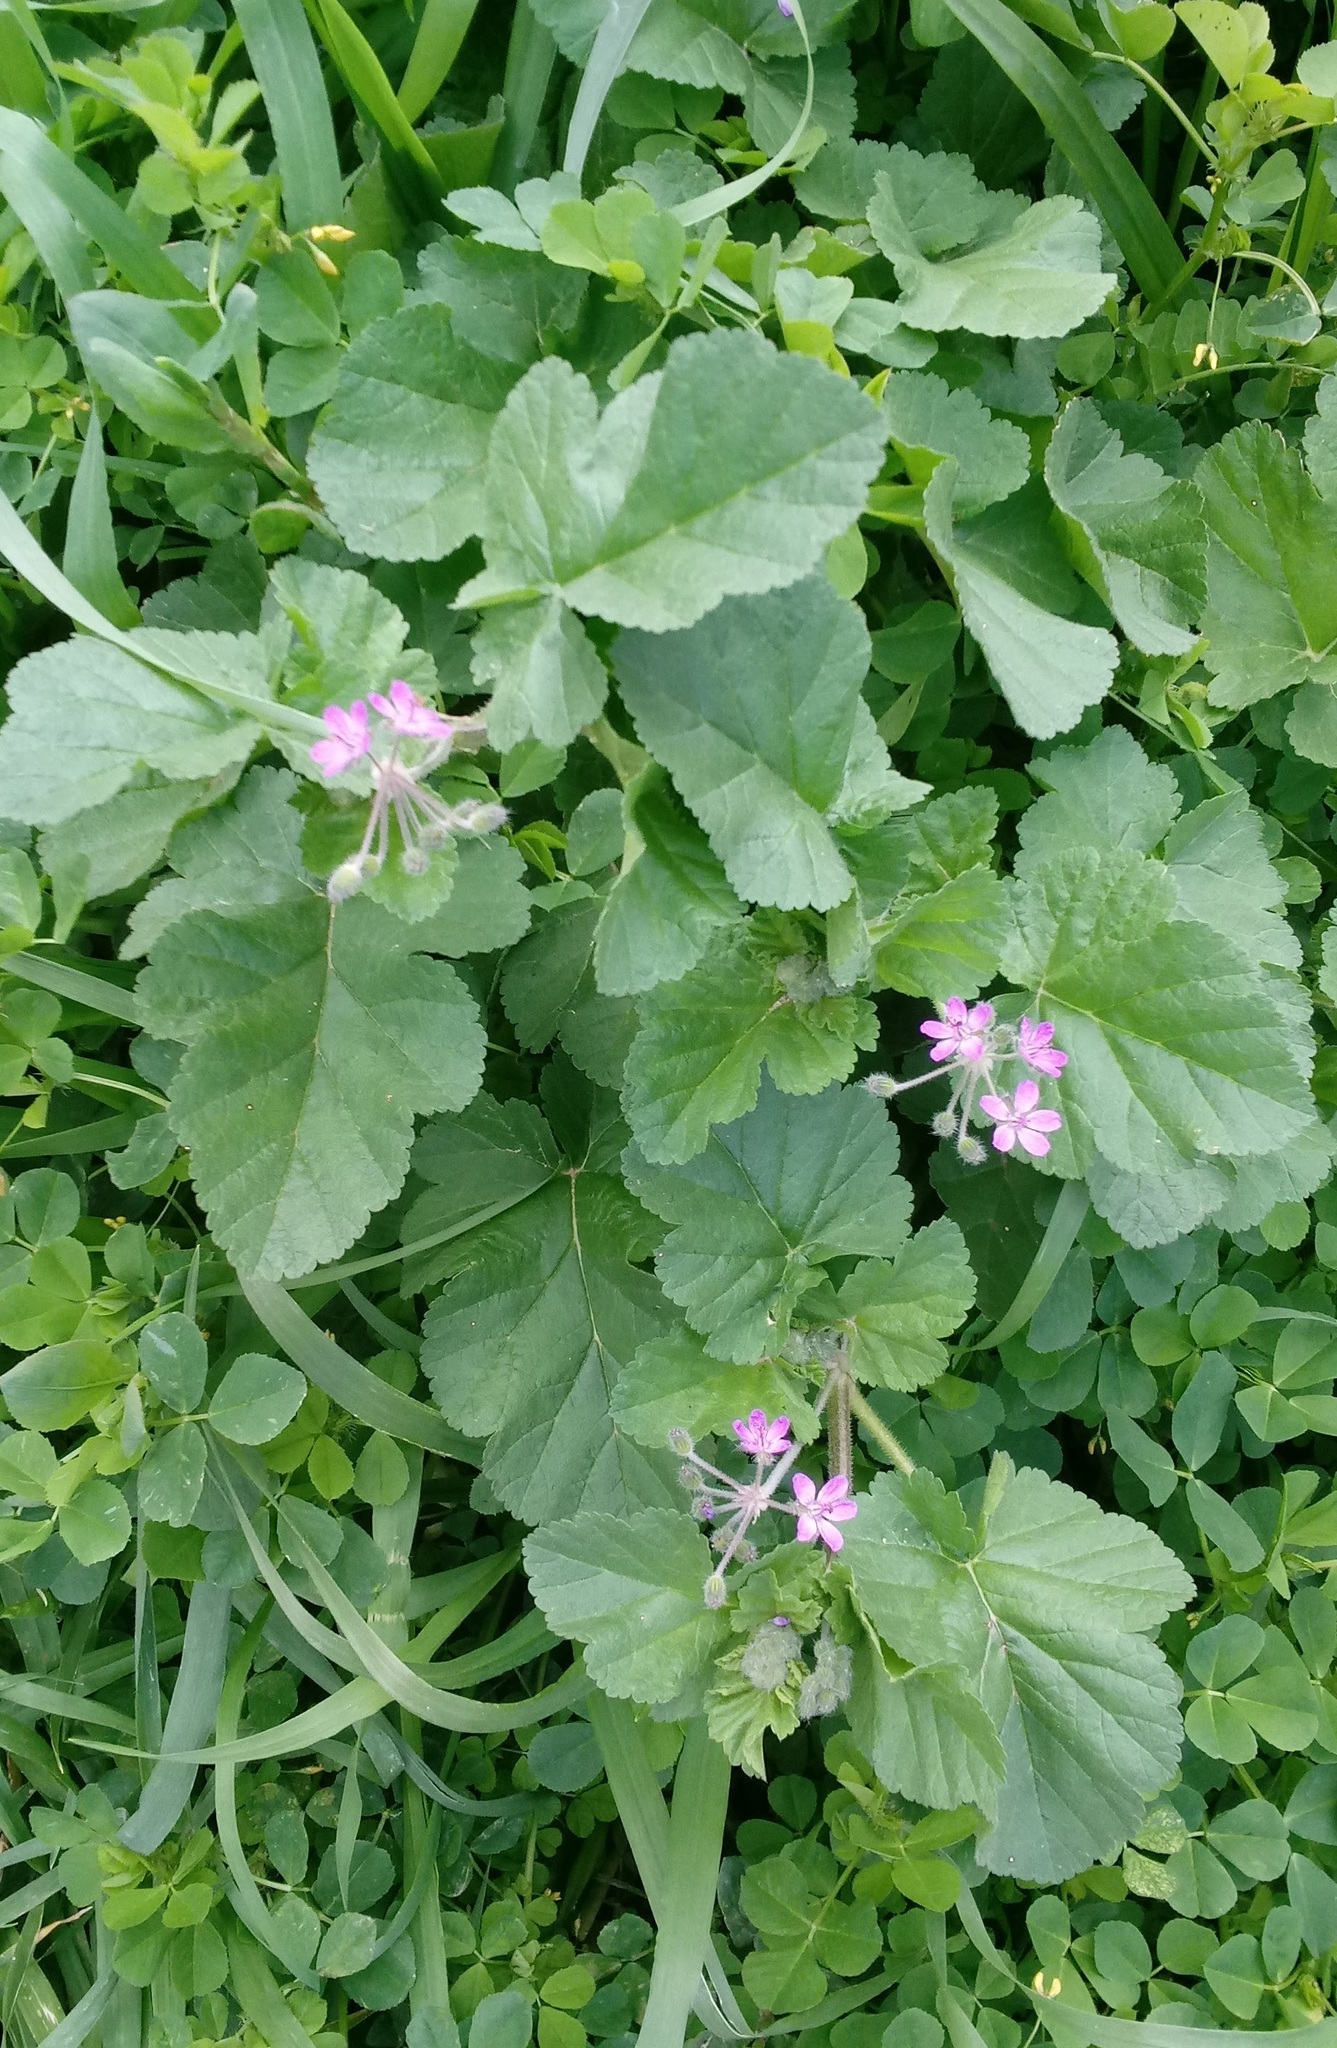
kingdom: Plantae
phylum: Tracheophyta
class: Magnoliopsida
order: Geraniales
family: Geraniaceae
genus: Erodium
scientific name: Erodium malacoides
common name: Soft stork's-bill
